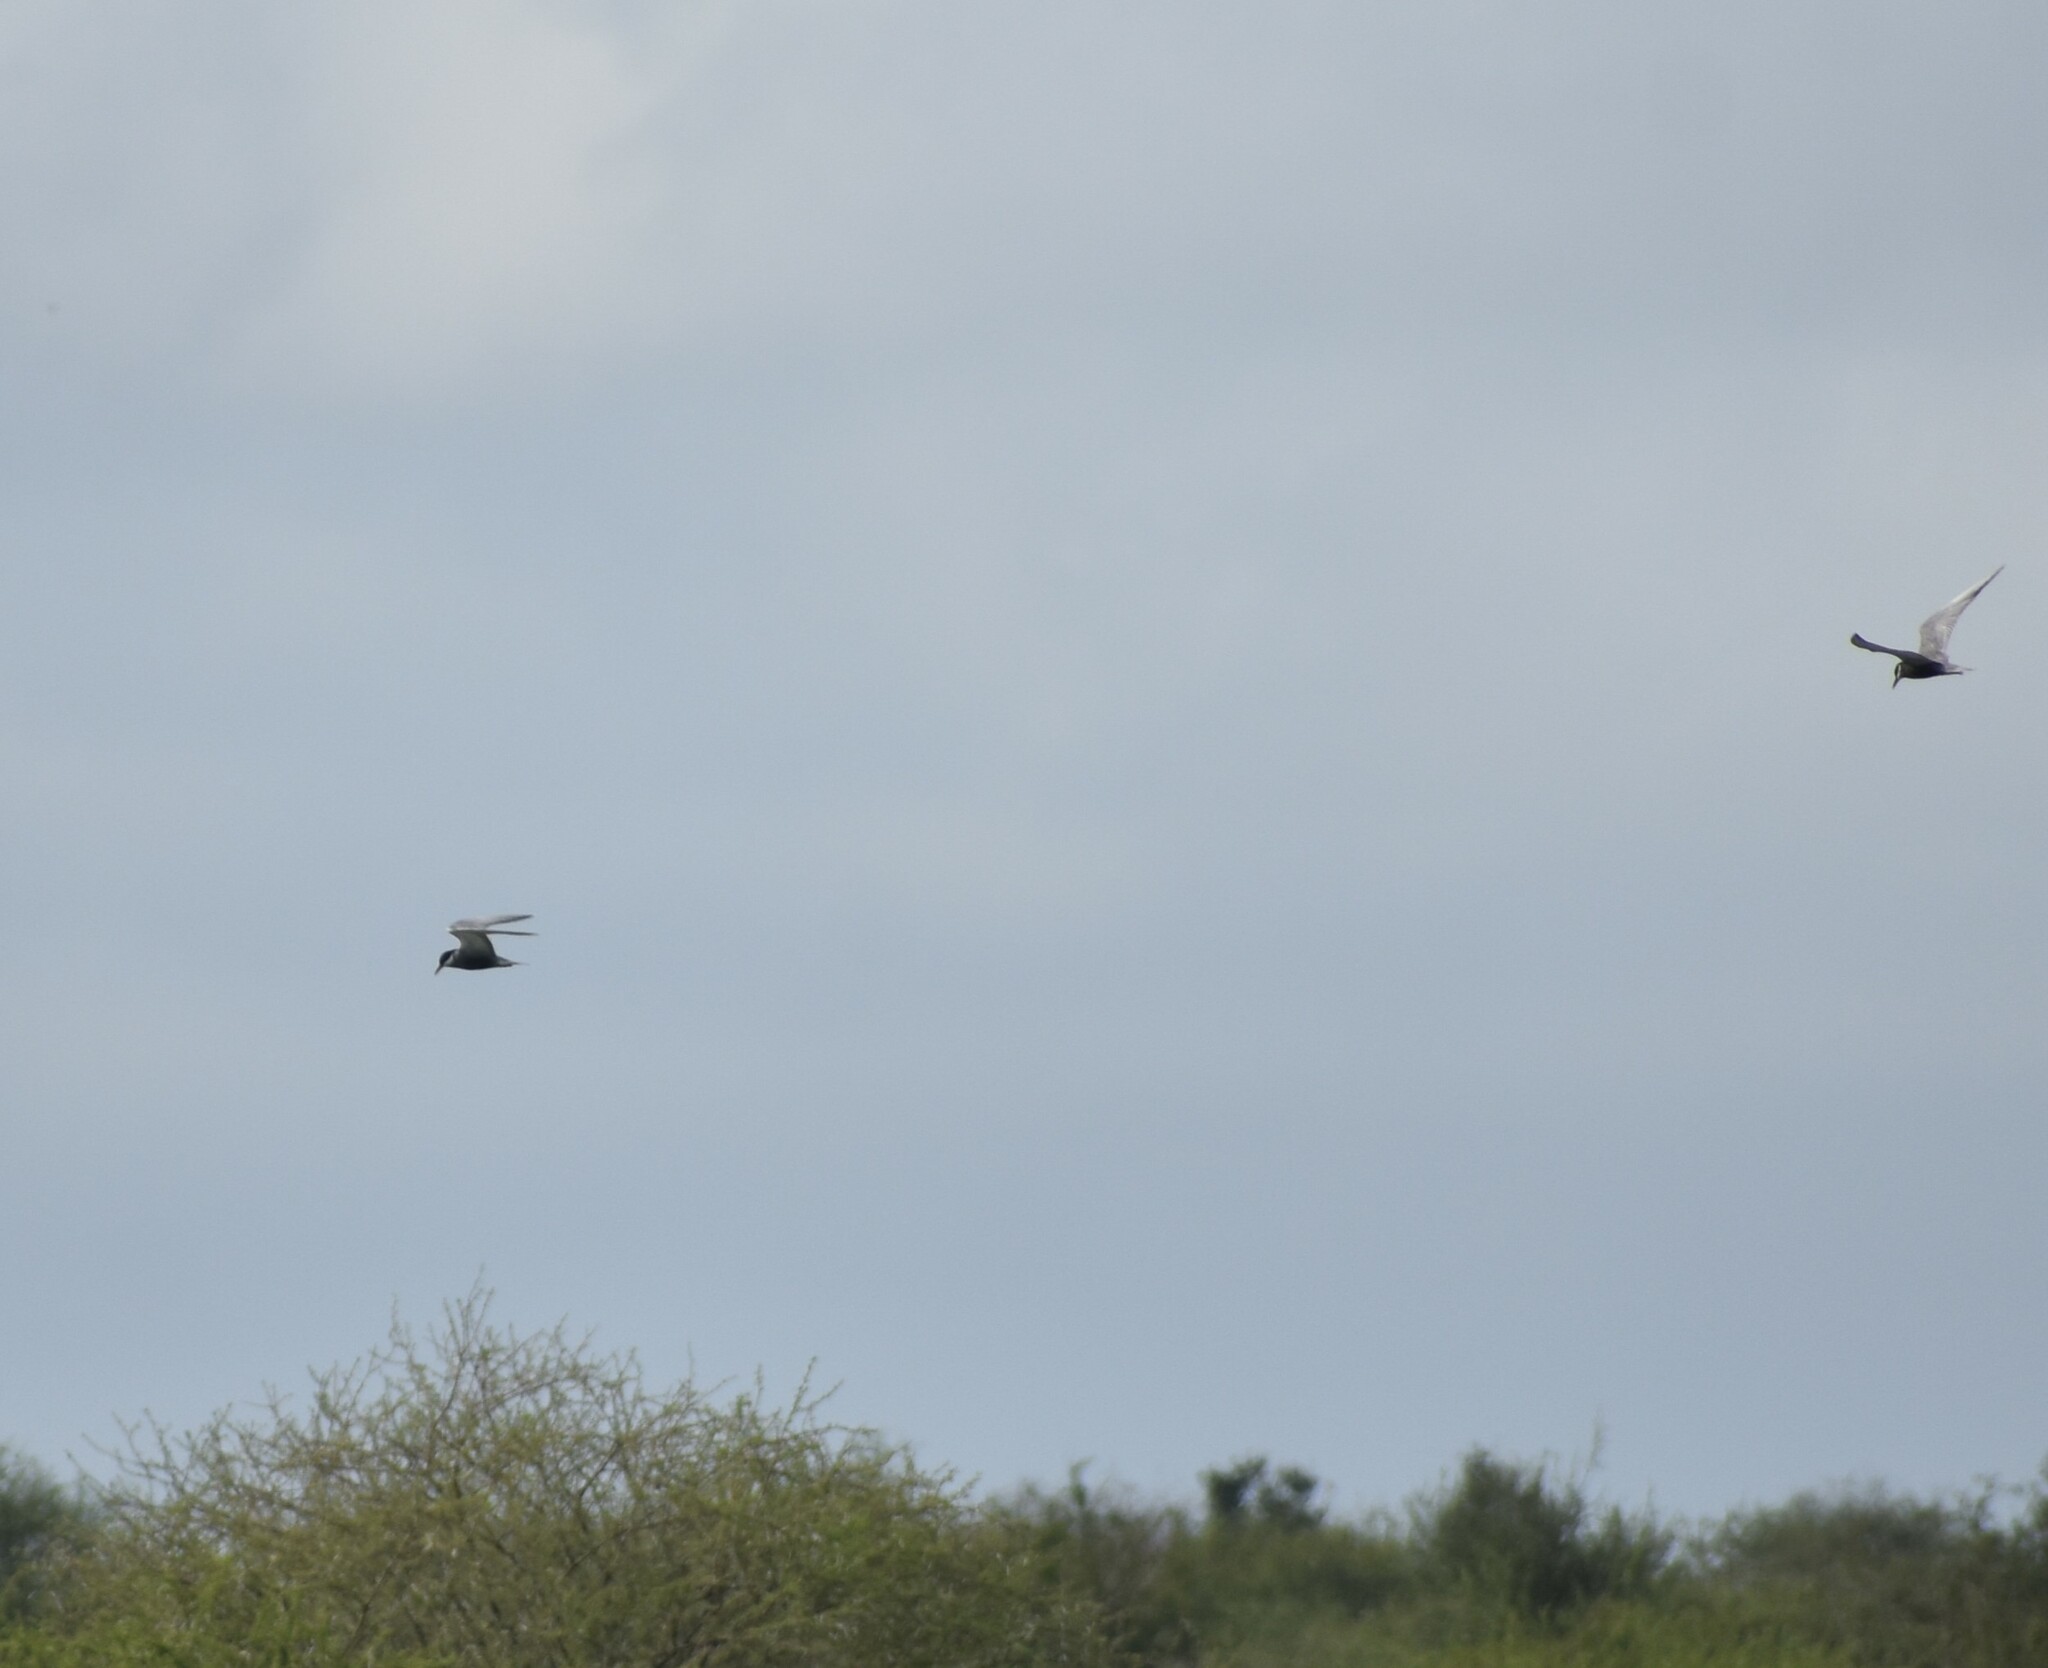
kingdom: Animalia
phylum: Chordata
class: Aves
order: Charadriiformes
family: Laridae
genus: Chlidonias
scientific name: Chlidonias hybrida
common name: Whiskered tern
